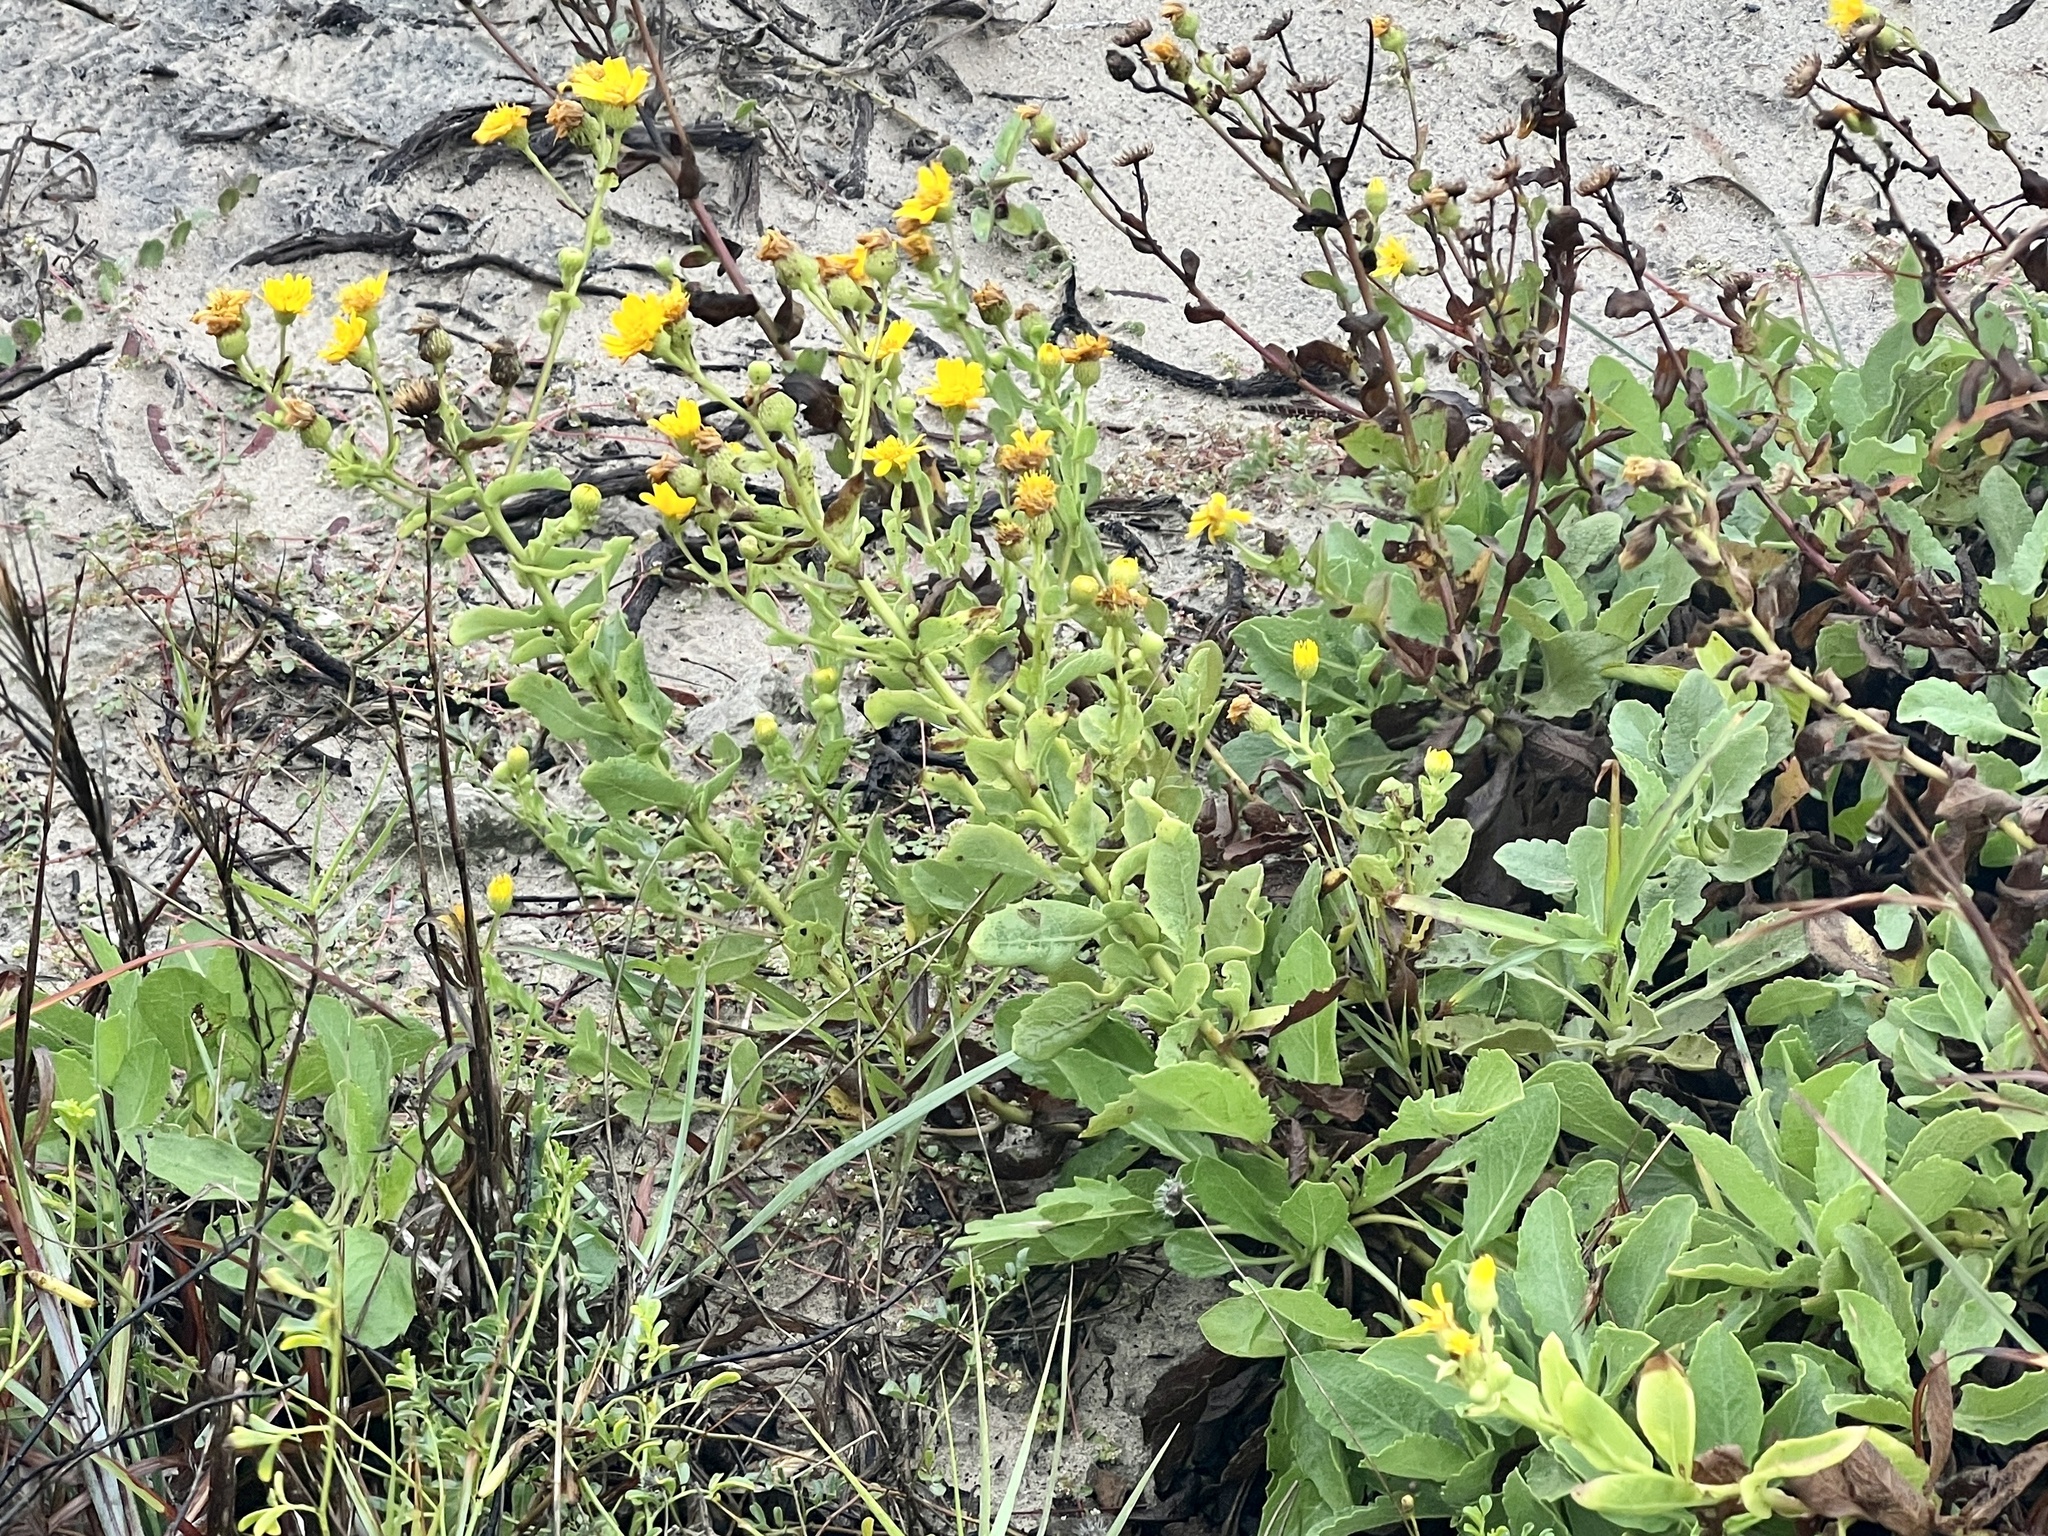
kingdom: Plantae
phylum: Tracheophyta
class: Magnoliopsida
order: Asterales
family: Asteraceae
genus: Heterotheca
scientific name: Heterotheca subaxillaris
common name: Camphorweed
